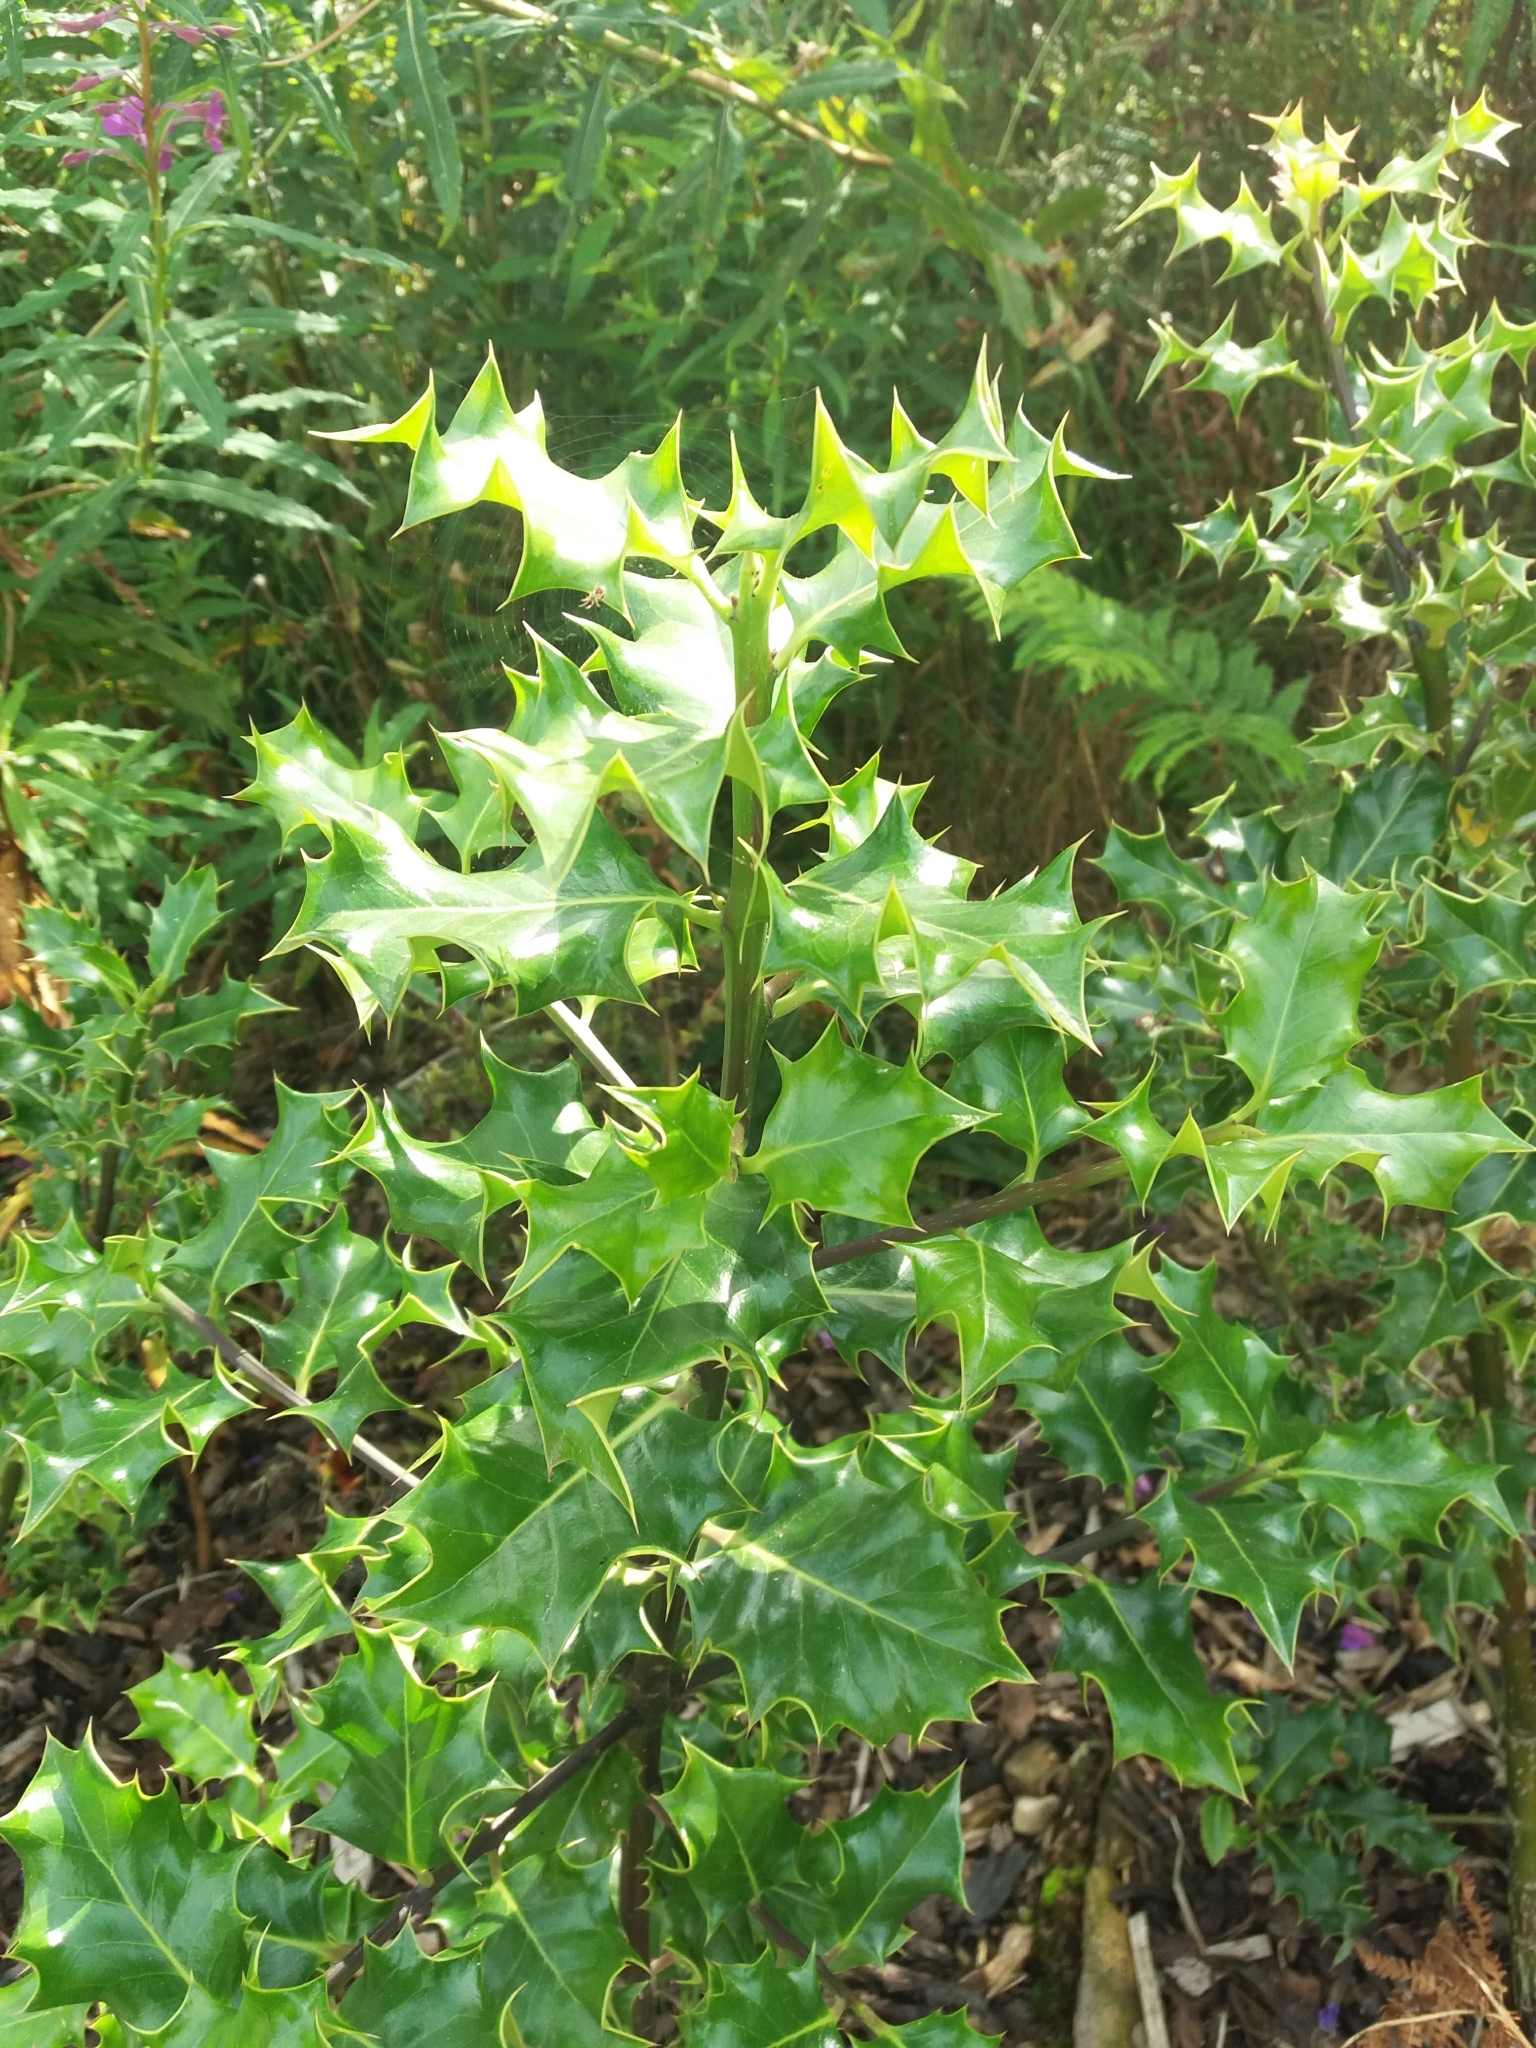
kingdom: Plantae
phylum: Tracheophyta
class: Magnoliopsida
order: Aquifoliales
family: Aquifoliaceae
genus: Ilex
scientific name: Ilex aquifolium
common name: English holly
